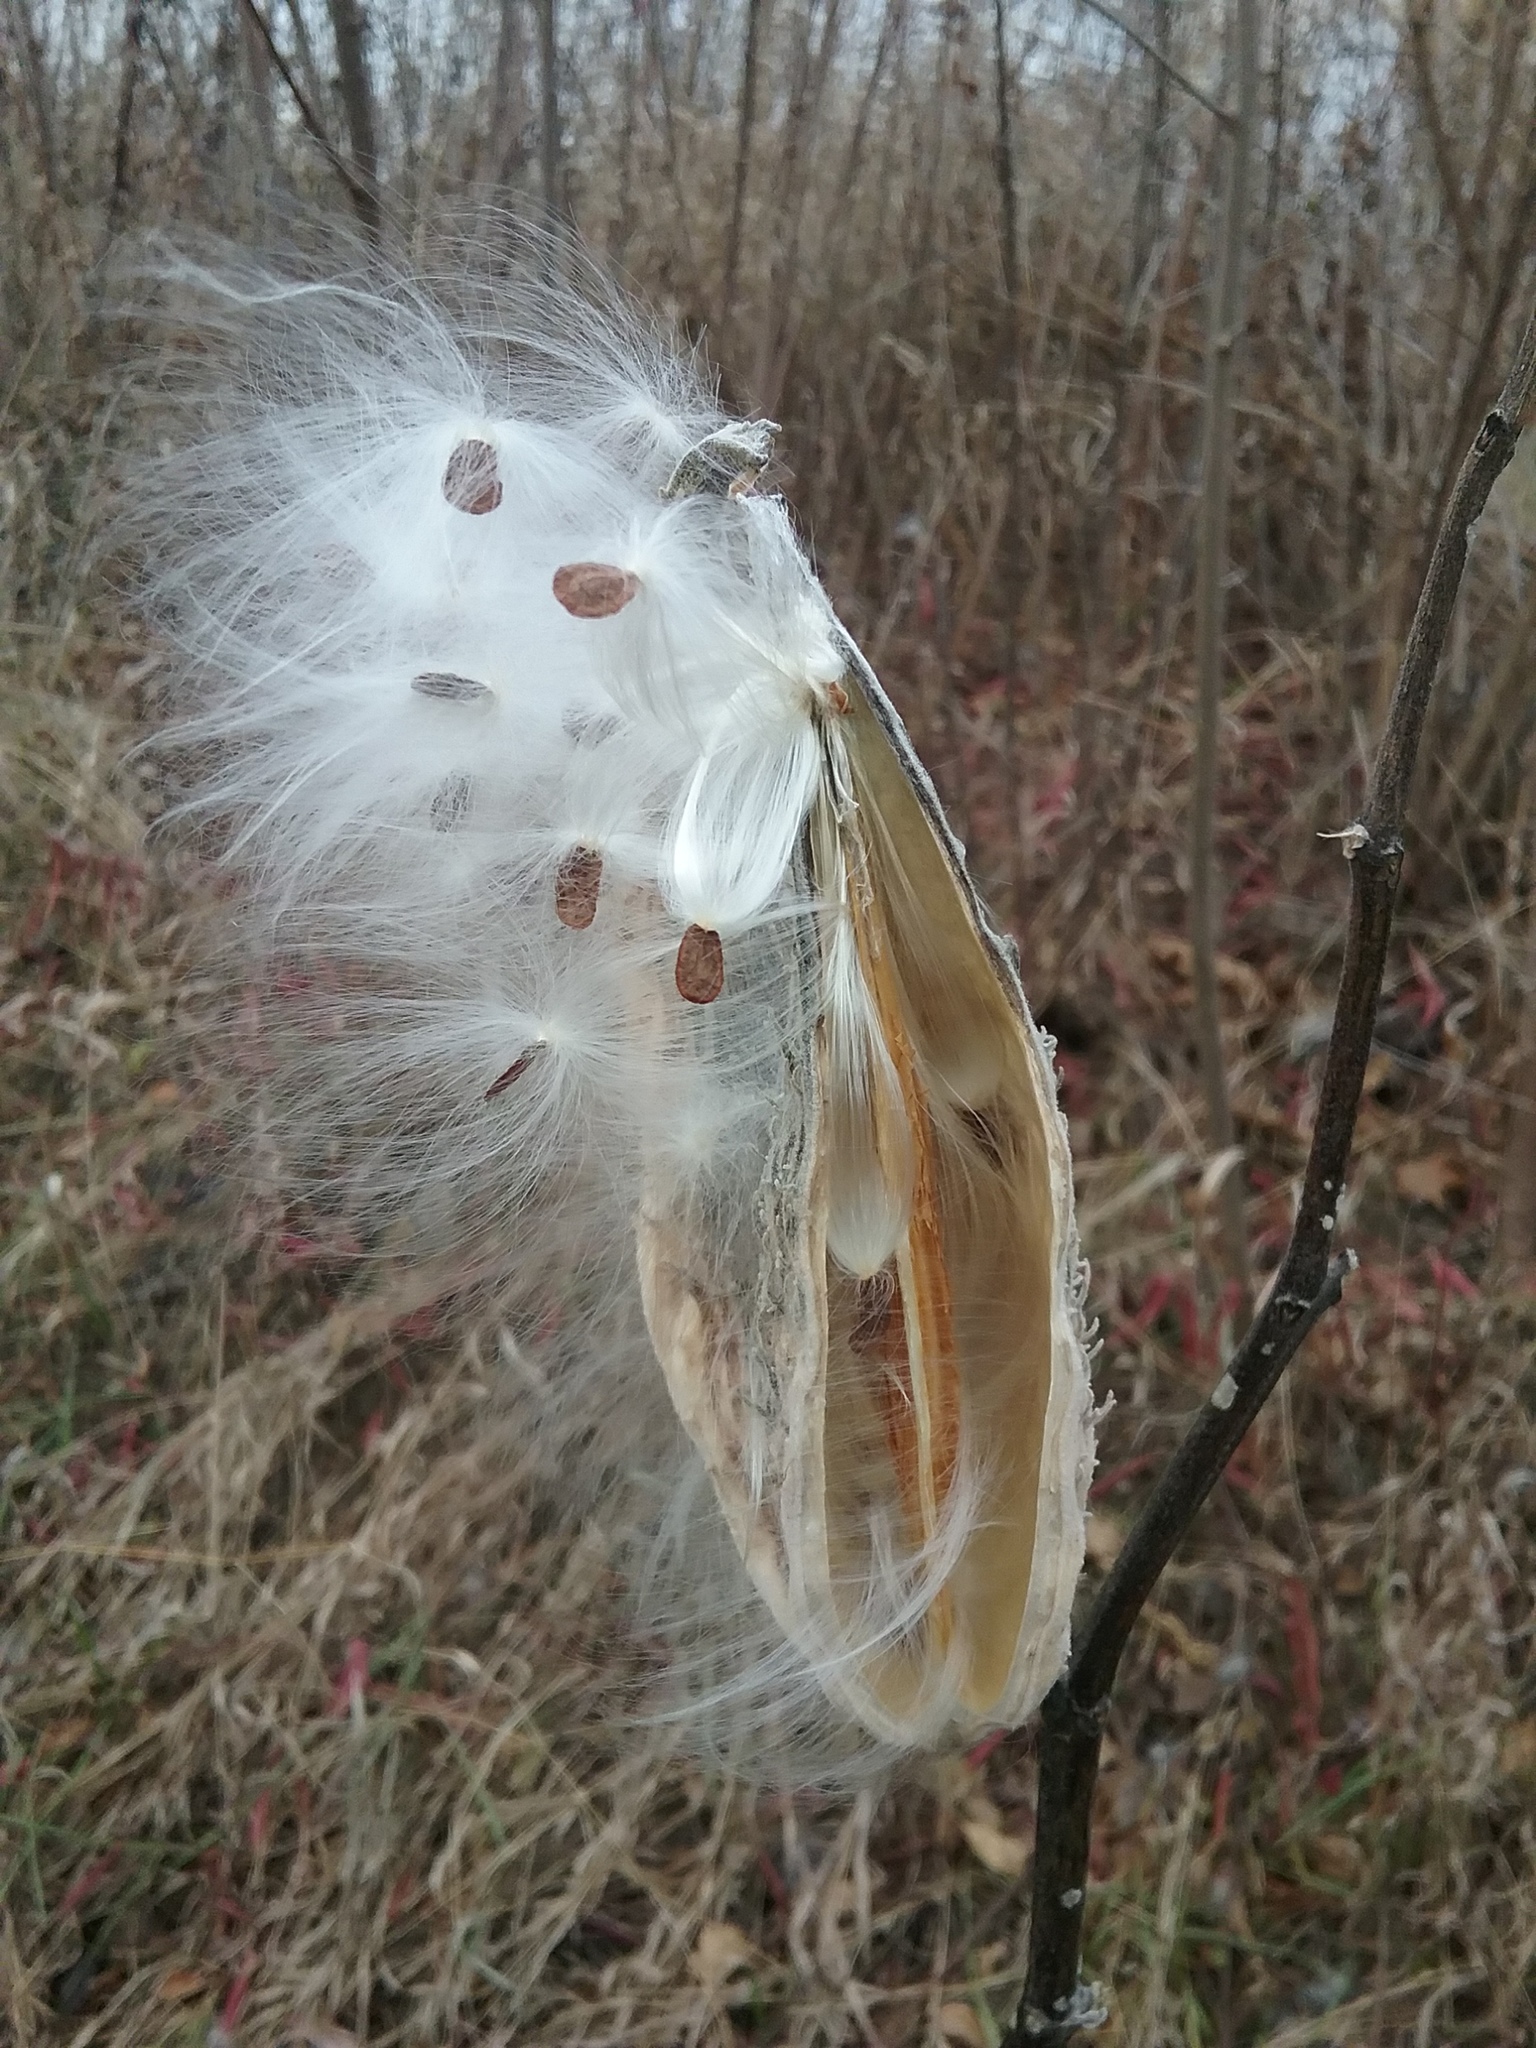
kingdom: Plantae
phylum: Tracheophyta
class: Magnoliopsida
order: Gentianales
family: Apocynaceae
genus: Asclepias
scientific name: Asclepias syriaca
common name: Common milkweed
